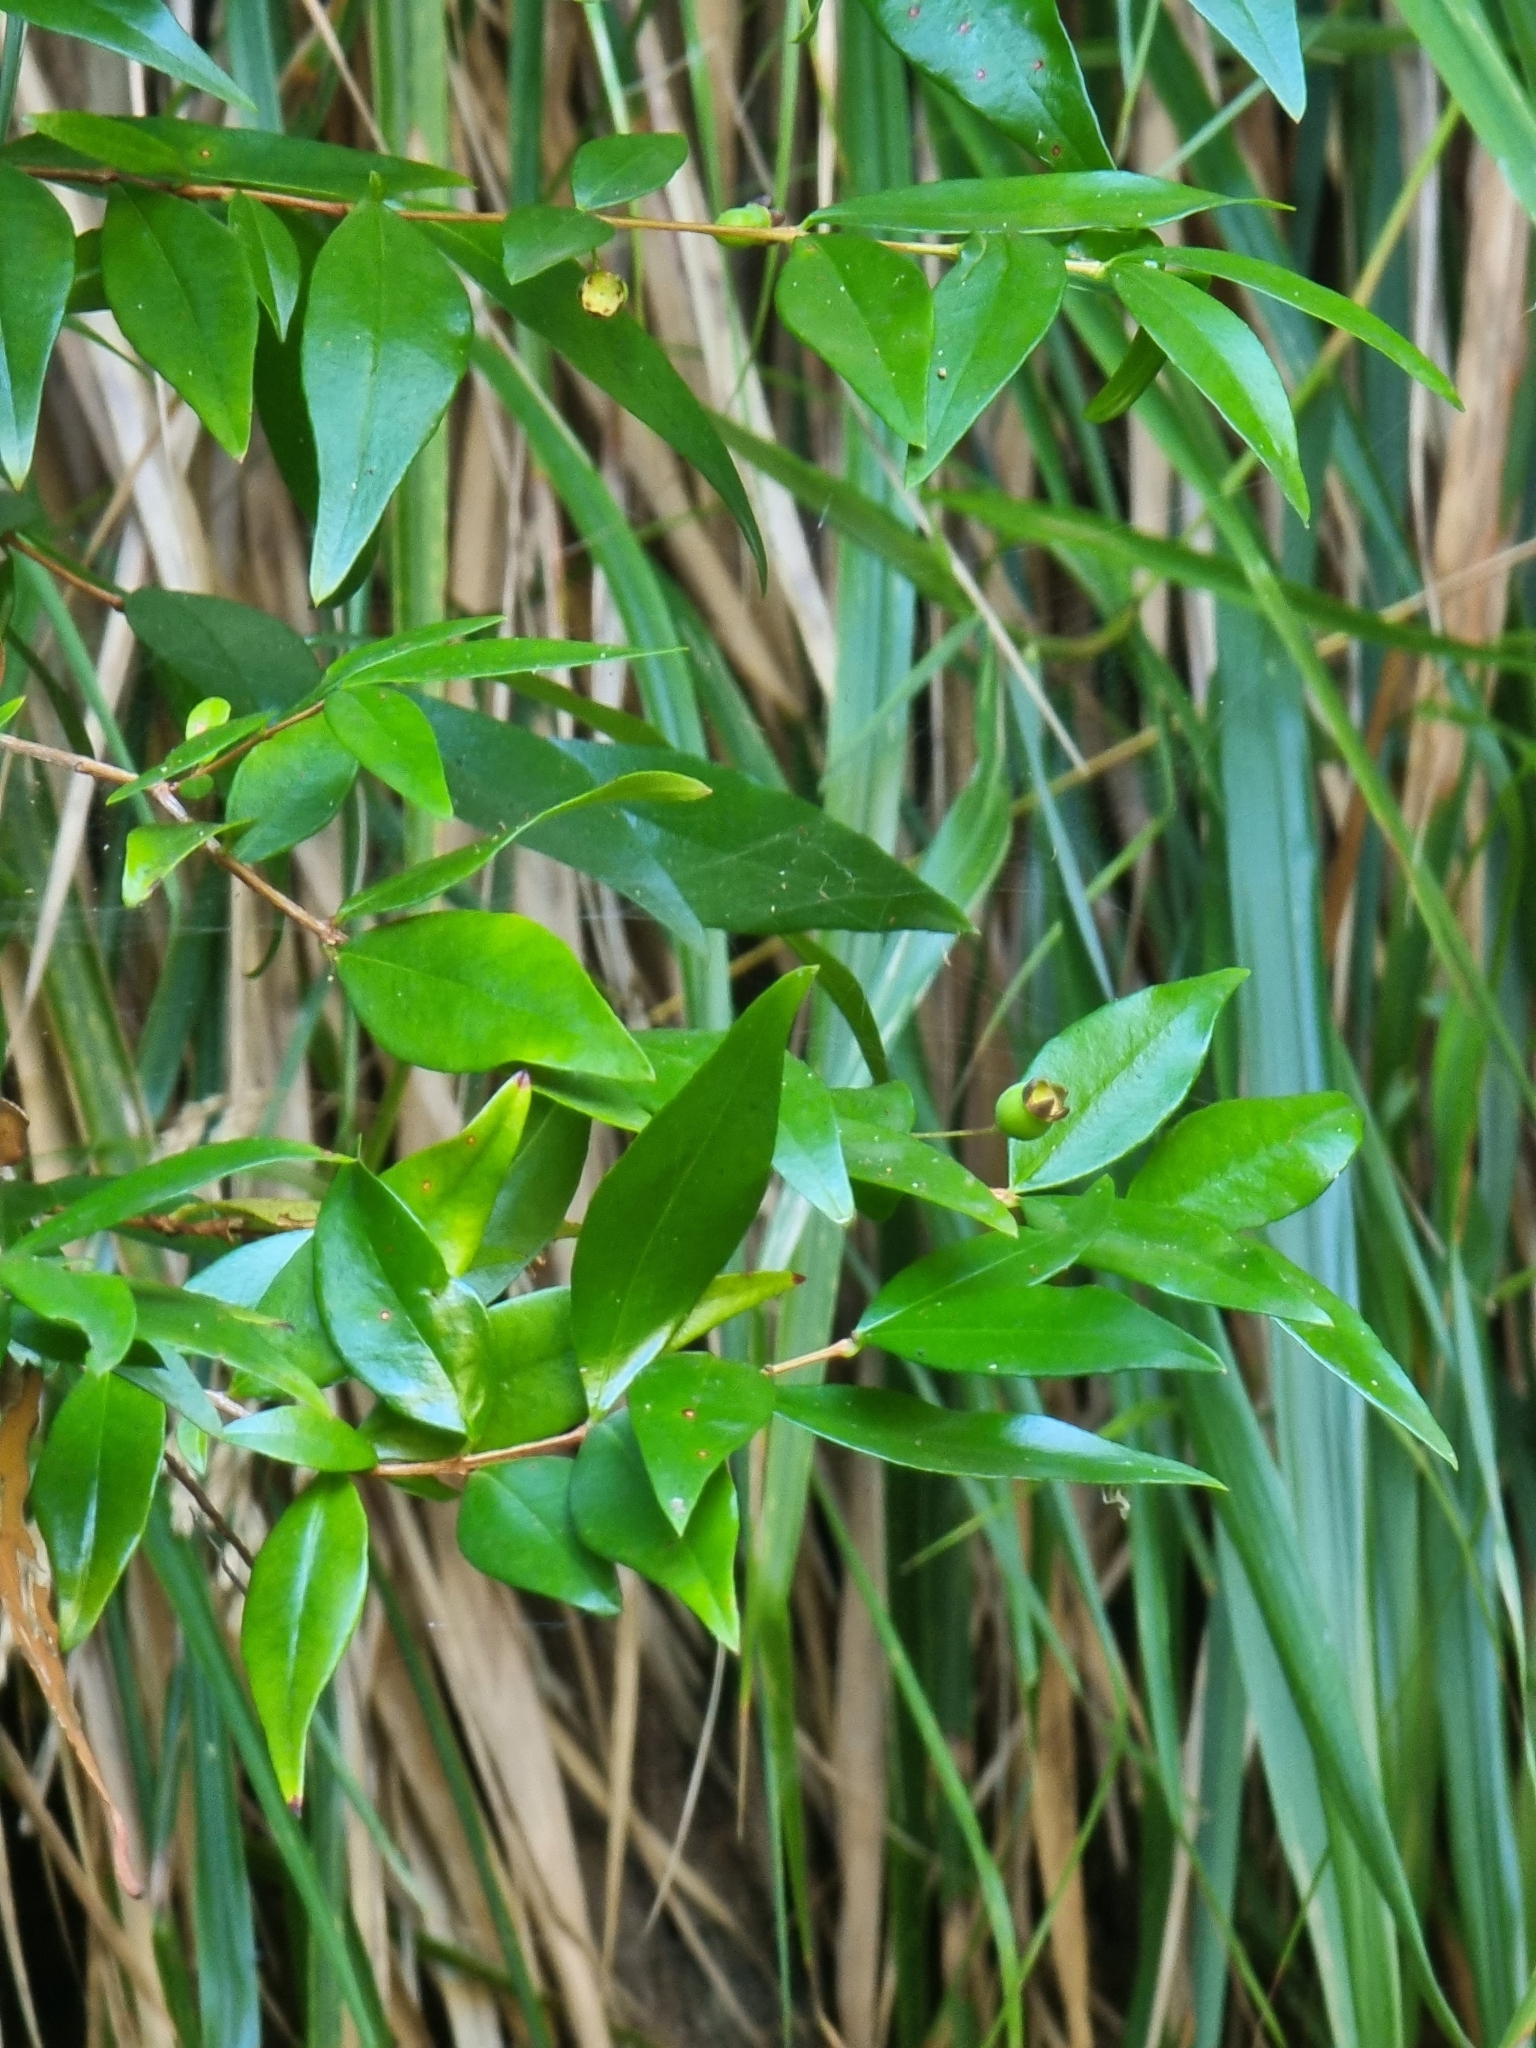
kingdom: Plantae
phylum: Tracheophyta
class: Magnoliopsida
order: Myrtales
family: Myrtaceae
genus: Myrtus
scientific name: Myrtus communis
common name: Myrtle
